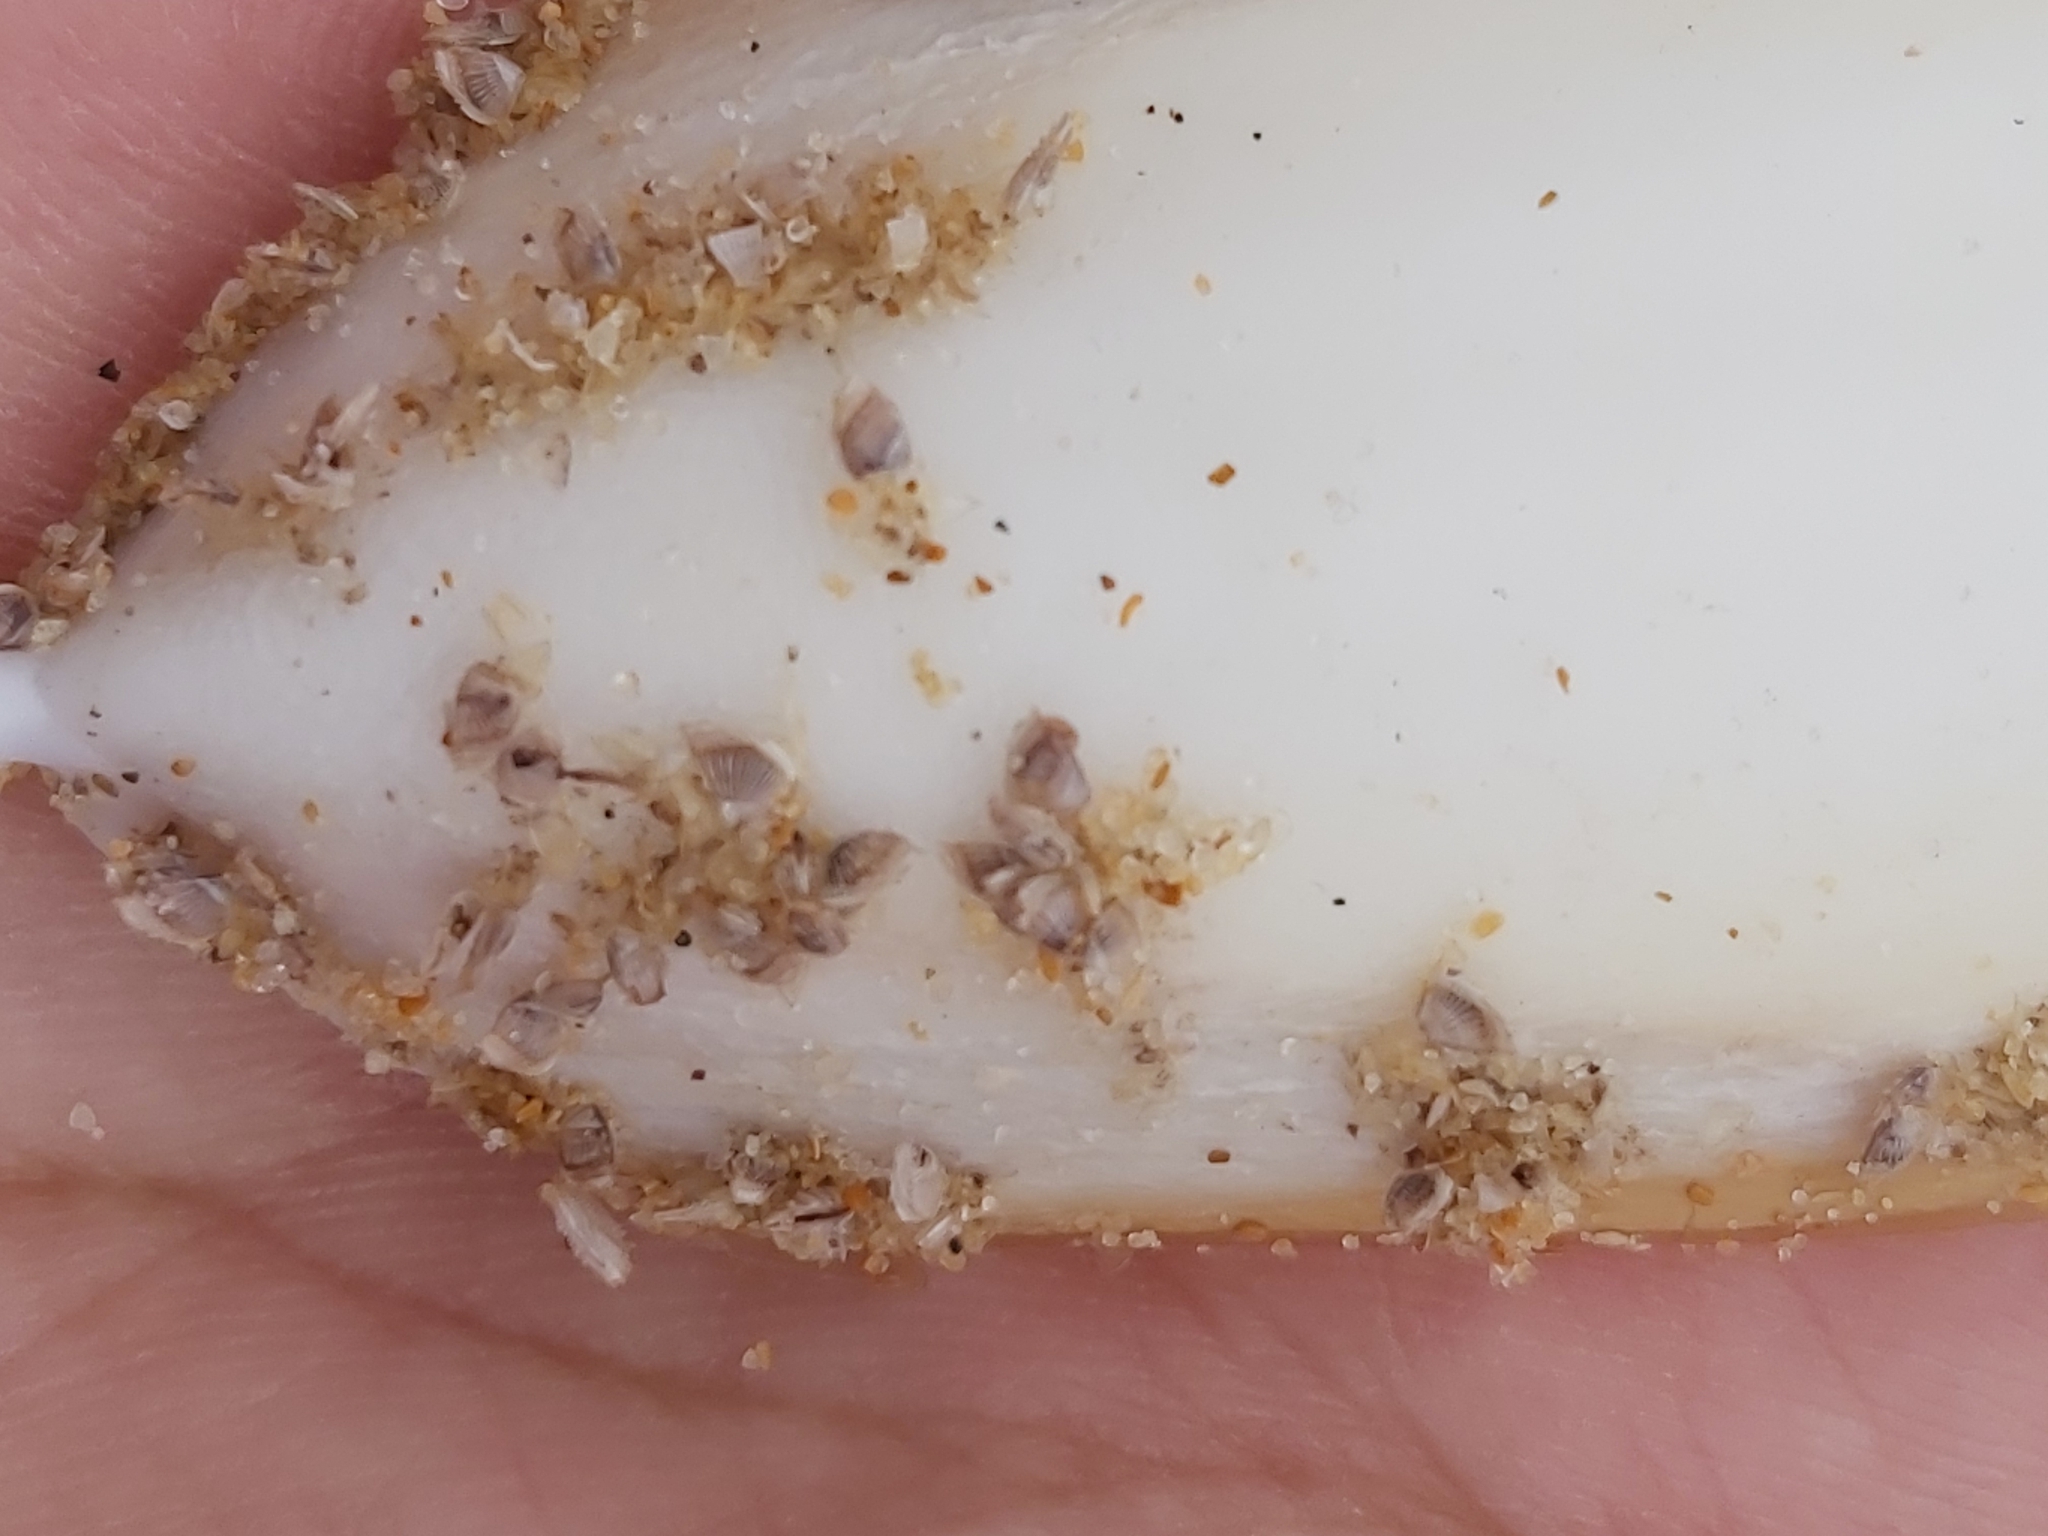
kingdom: Animalia
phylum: Arthropoda
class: Maxillopoda
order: Pedunculata
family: Lepadidae
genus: Lepas
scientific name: Lepas pectinata
